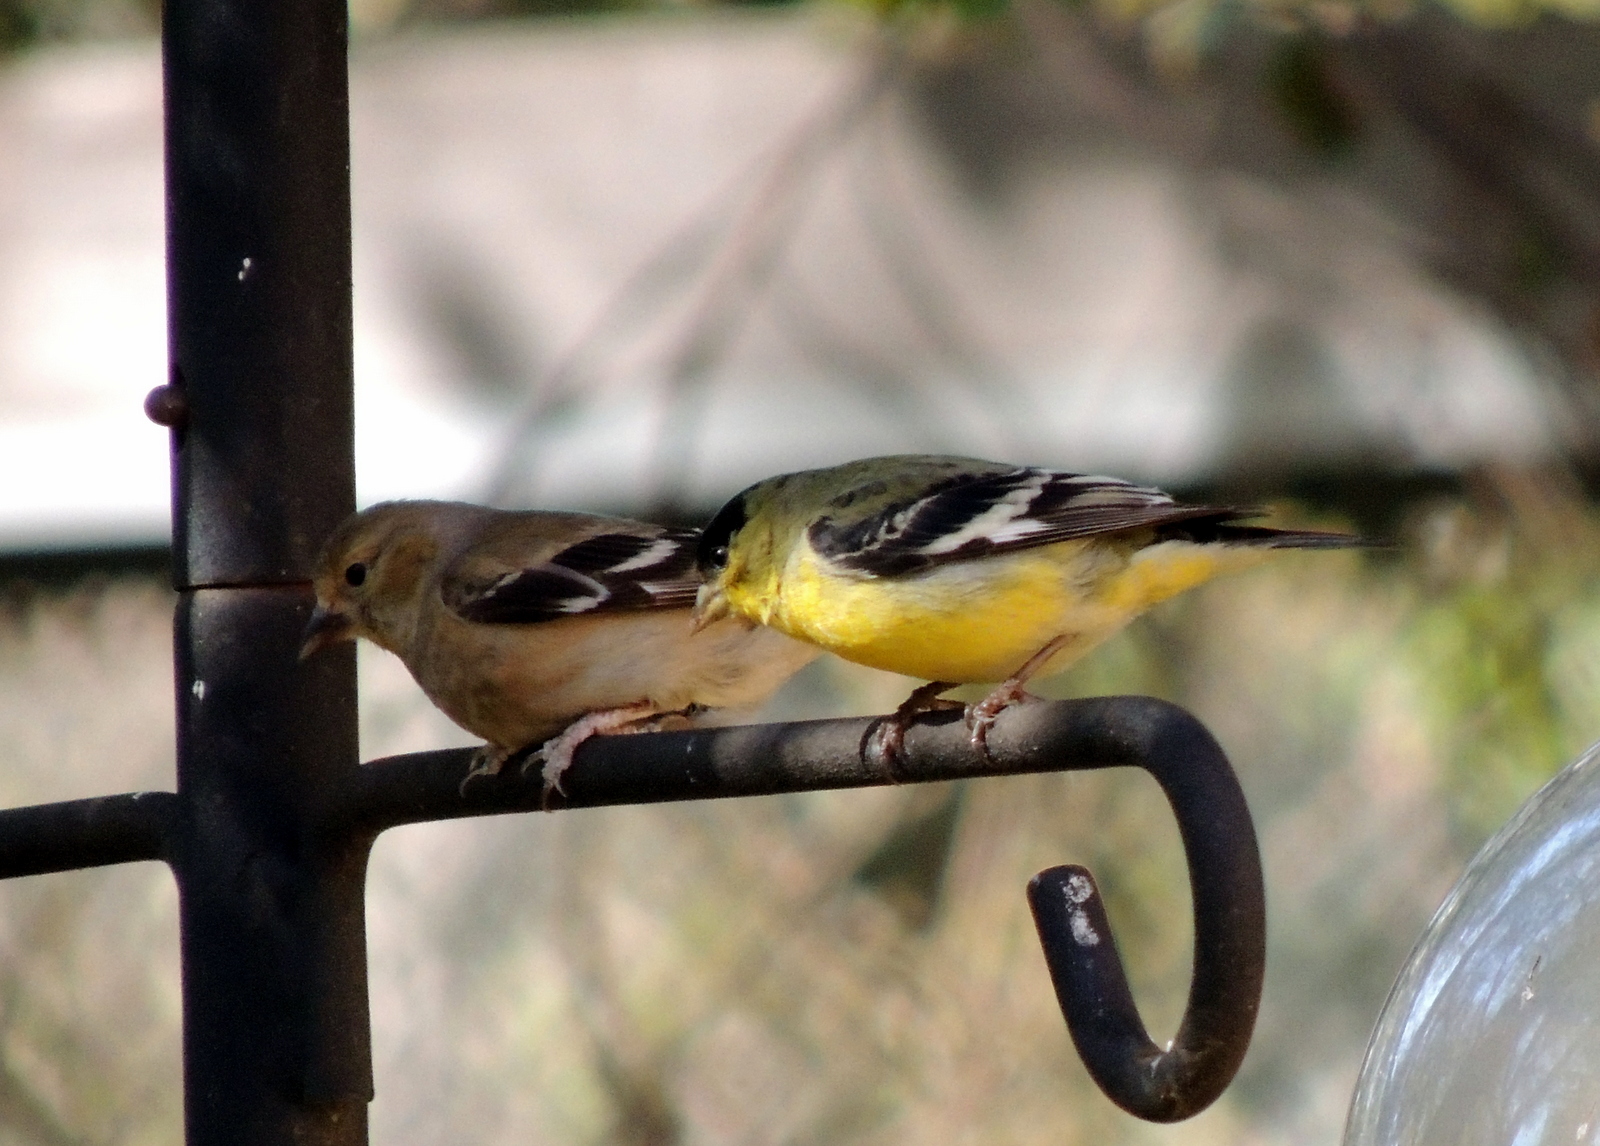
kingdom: Animalia
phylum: Chordata
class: Aves
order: Passeriformes
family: Fringillidae
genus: Spinus
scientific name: Spinus psaltria
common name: Lesser goldfinch
